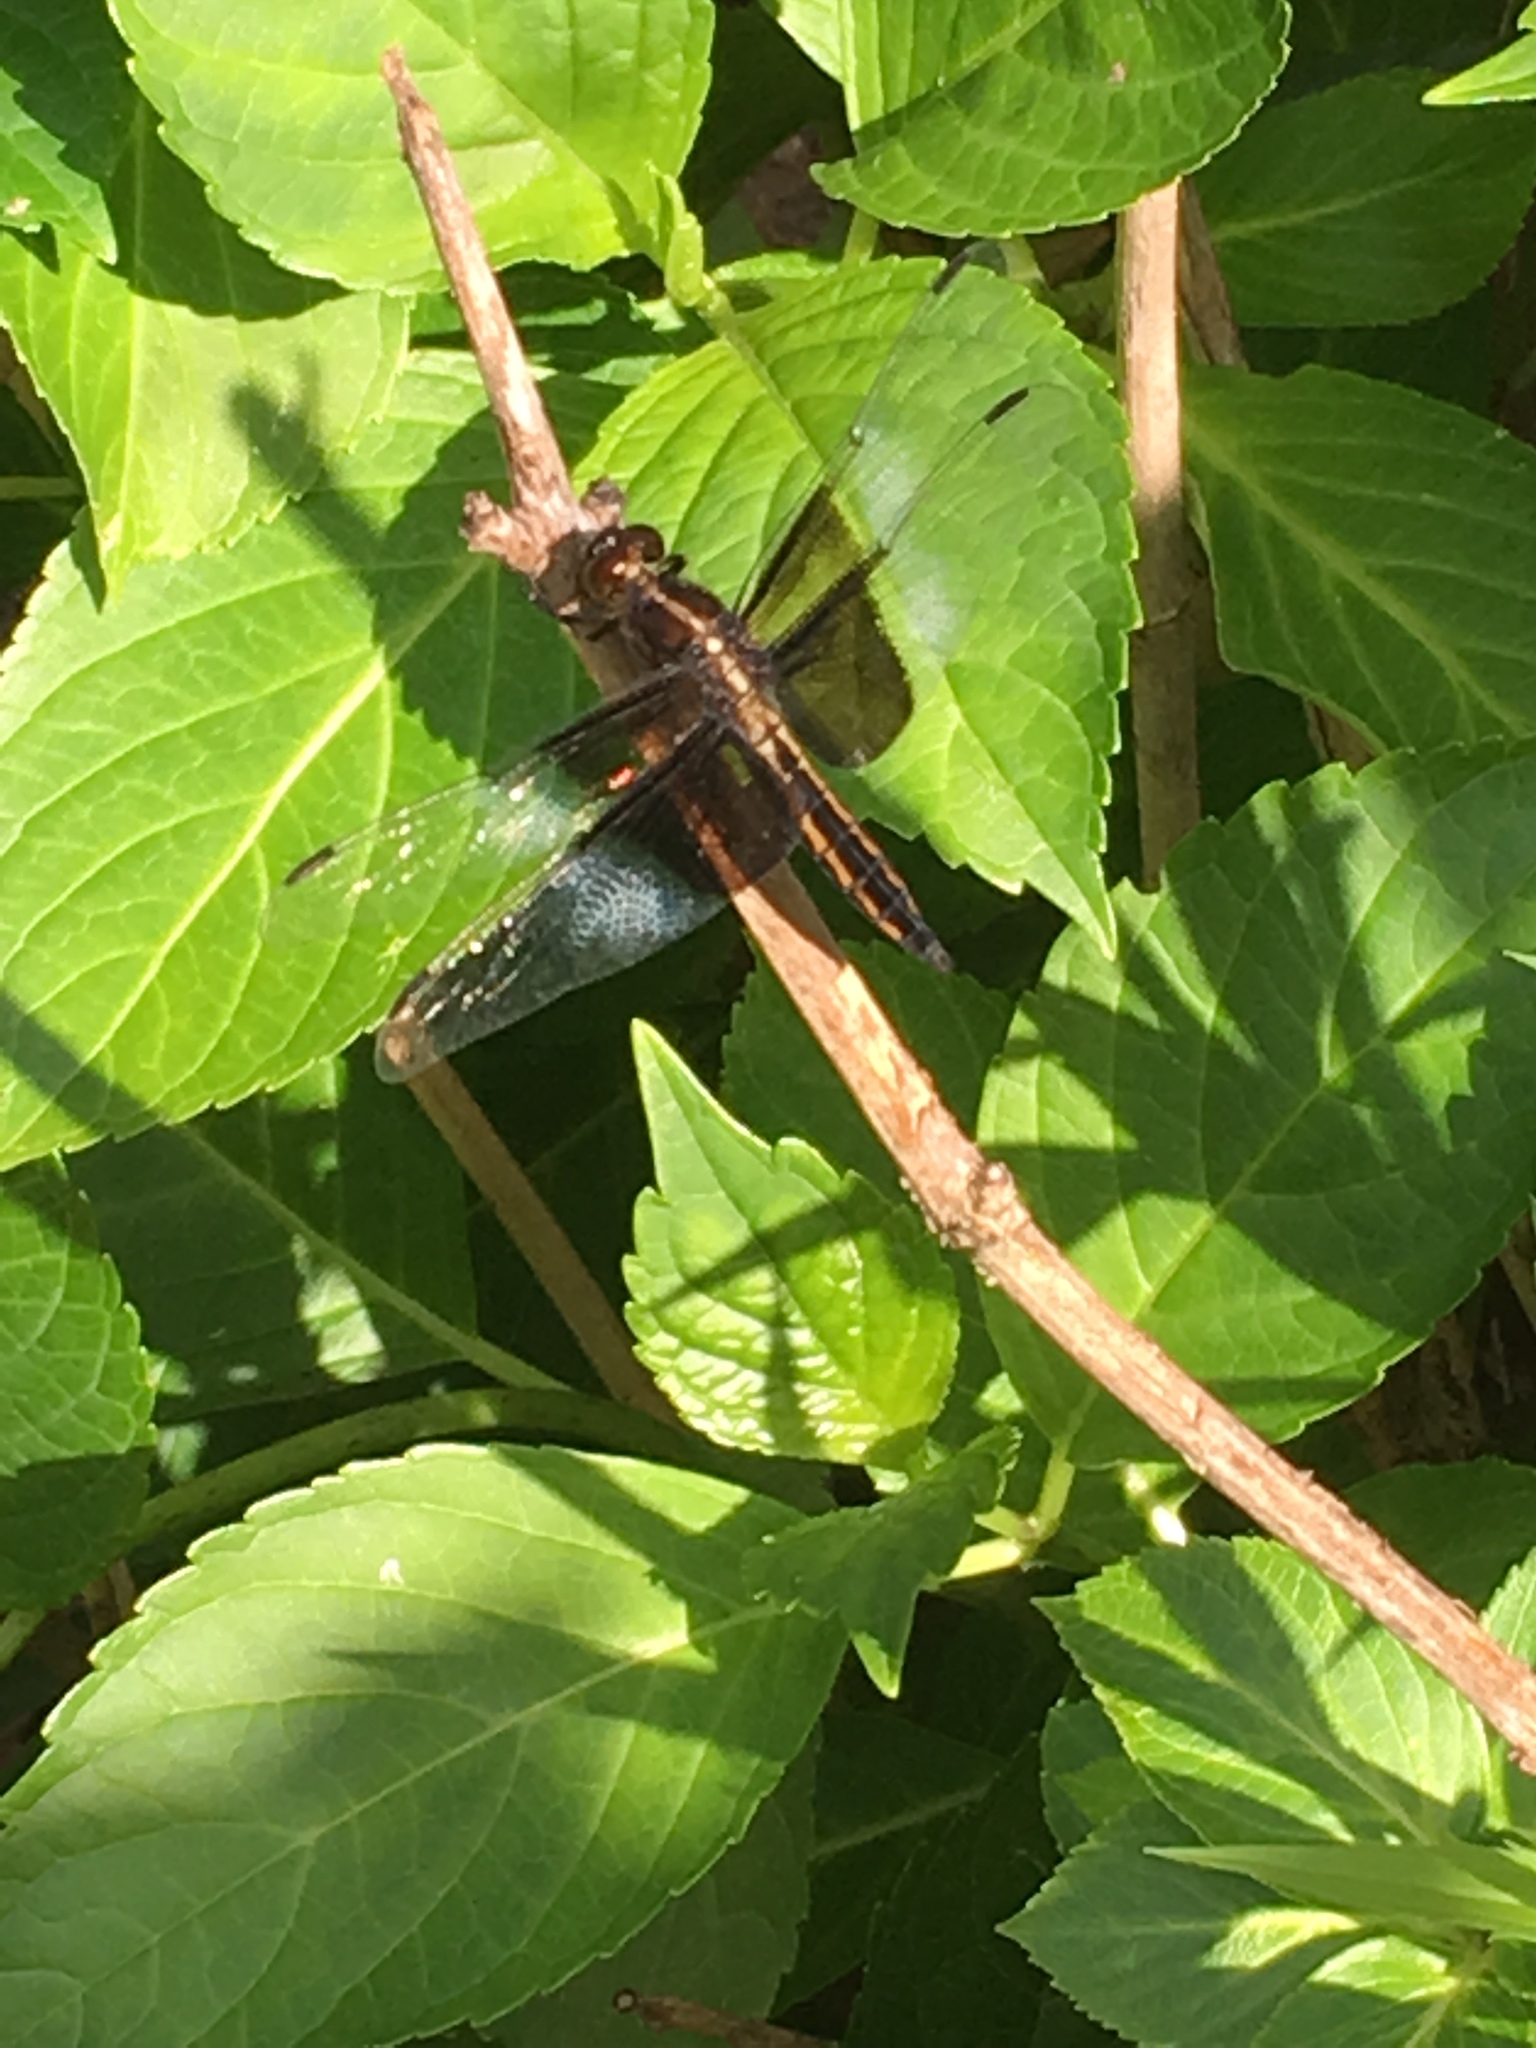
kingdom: Animalia
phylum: Arthropoda
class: Insecta
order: Odonata
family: Libellulidae
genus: Libellula
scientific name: Libellula luctuosa
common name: Widow skimmer
